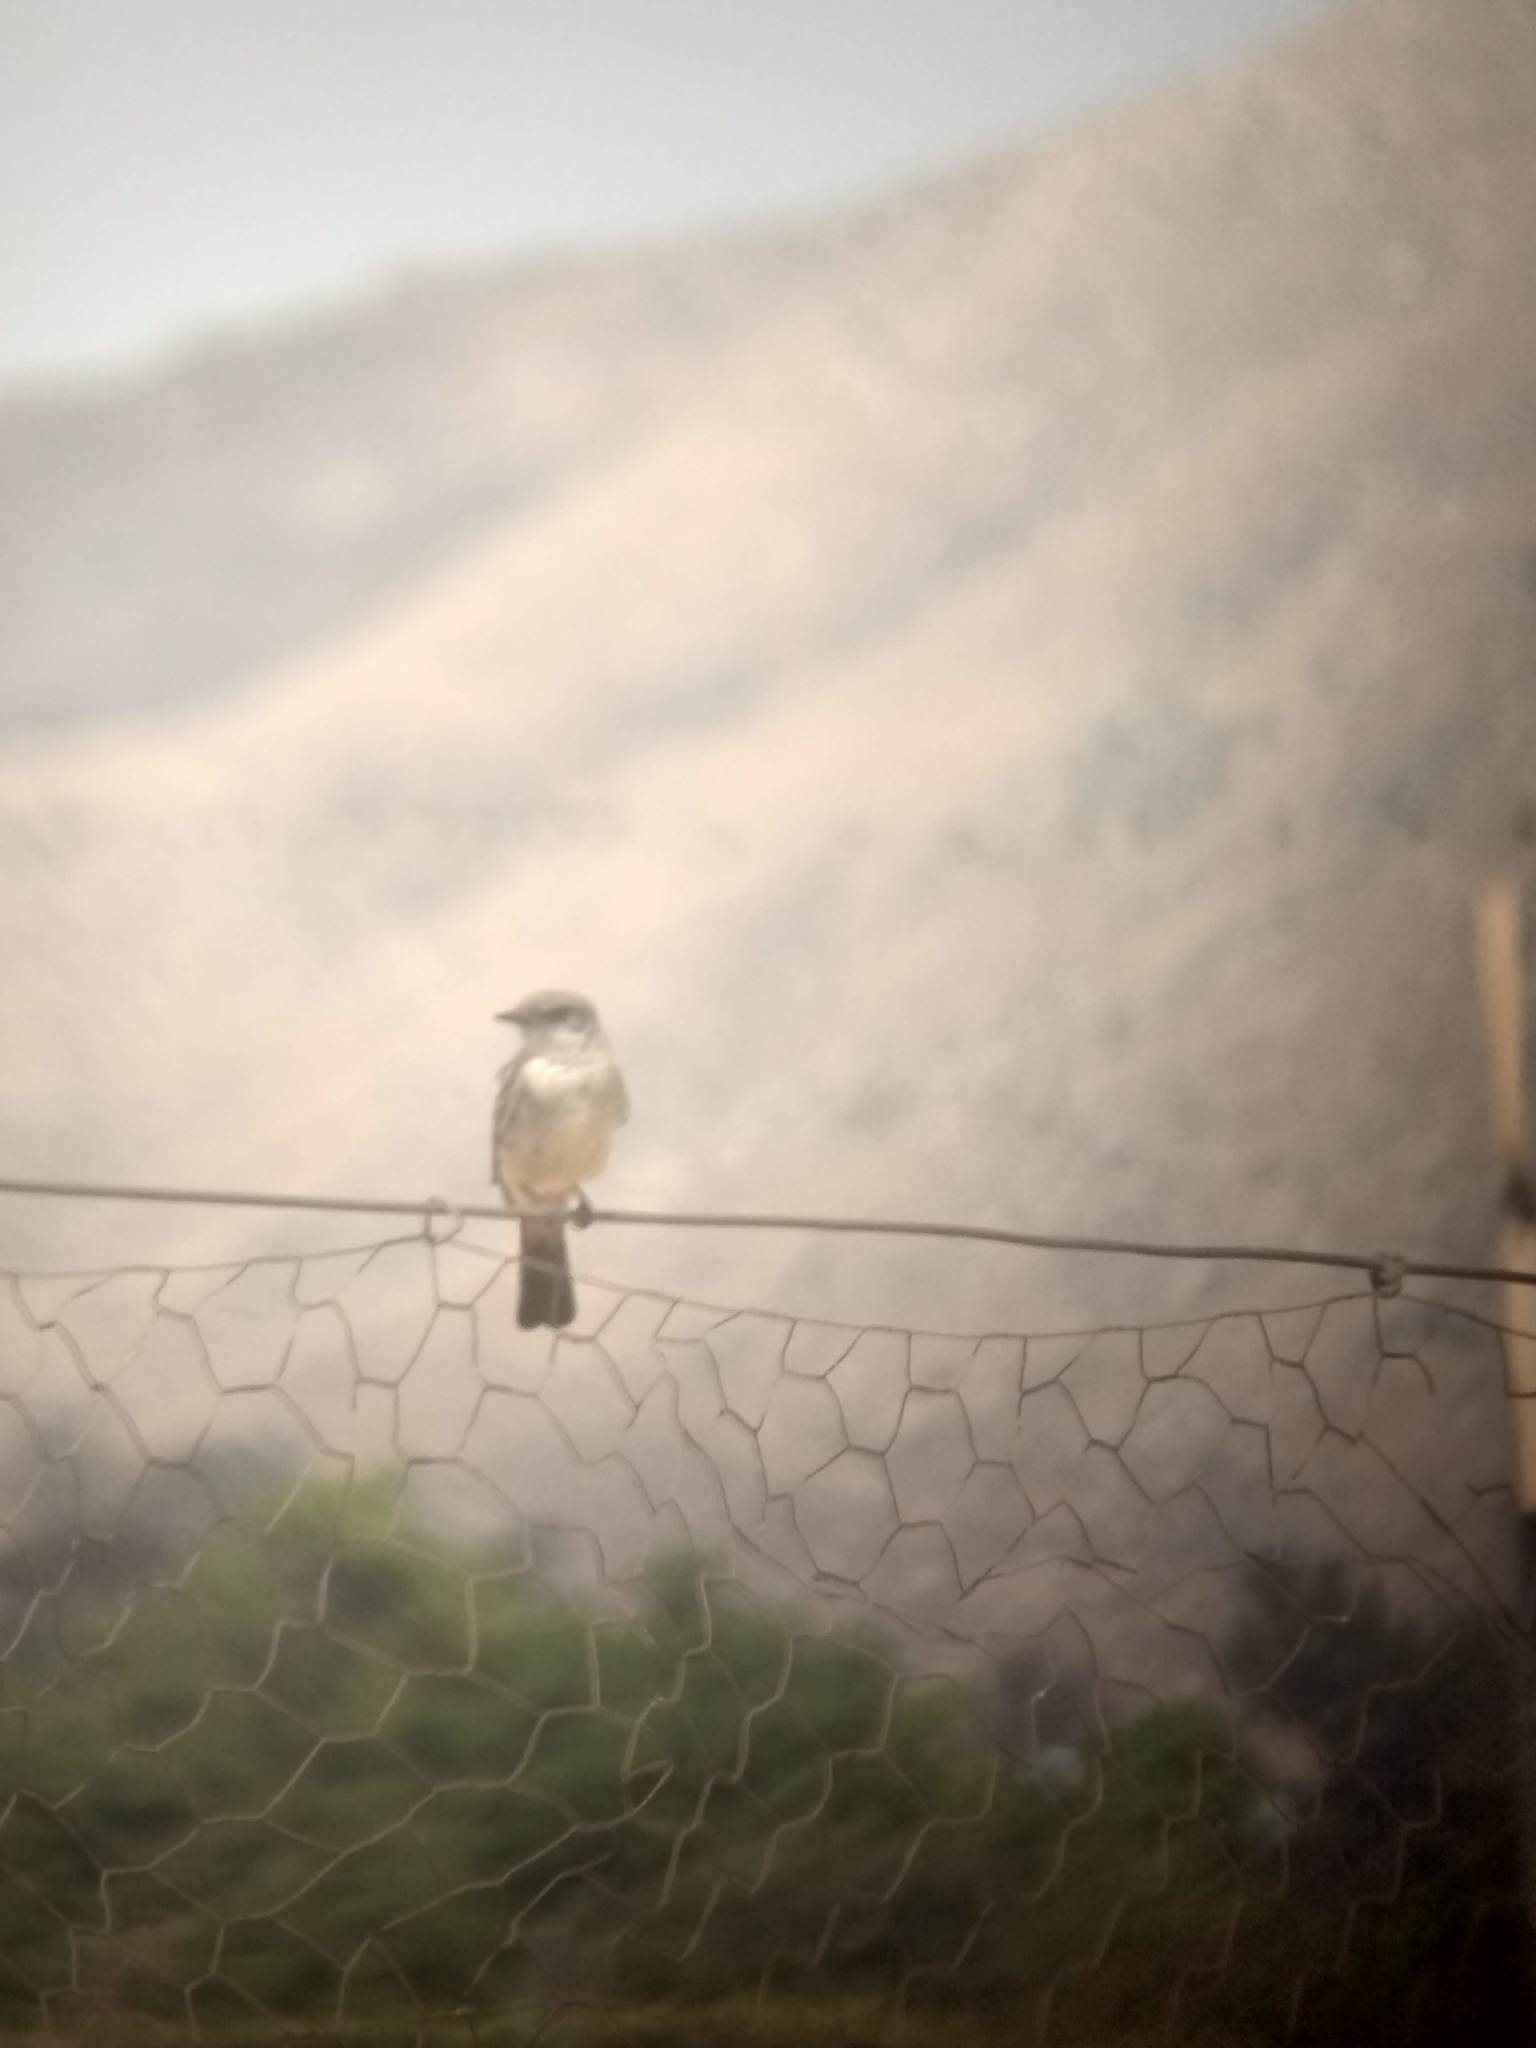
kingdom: Animalia
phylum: Chordata
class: Aves
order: Passeriformes
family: Tyrannidae
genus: Sayornis
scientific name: Sayornis saya
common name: Say's phoebe
